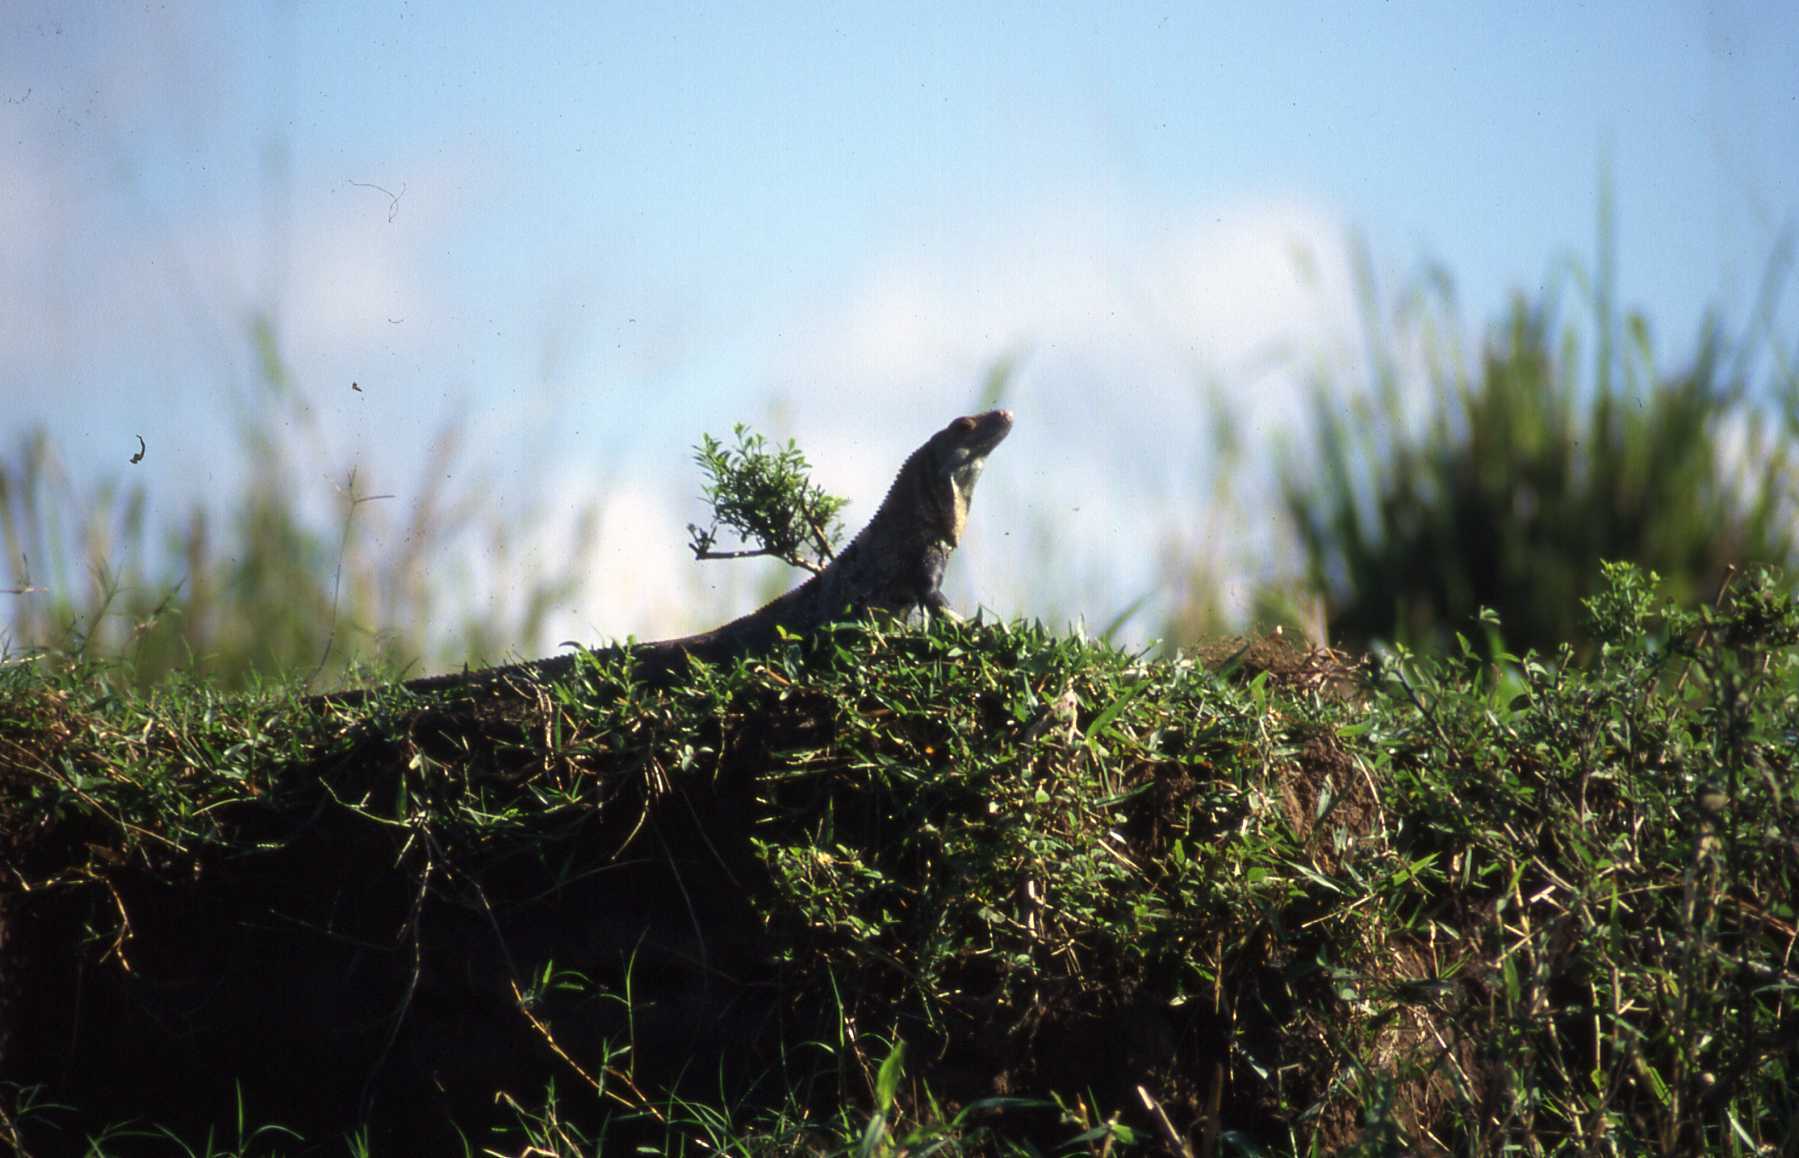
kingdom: Animalia
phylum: Chordata
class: Squamata
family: Iguanidae
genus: Ctenosaura
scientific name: Ctenosaura similis
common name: Black spiny-tailed iguana
